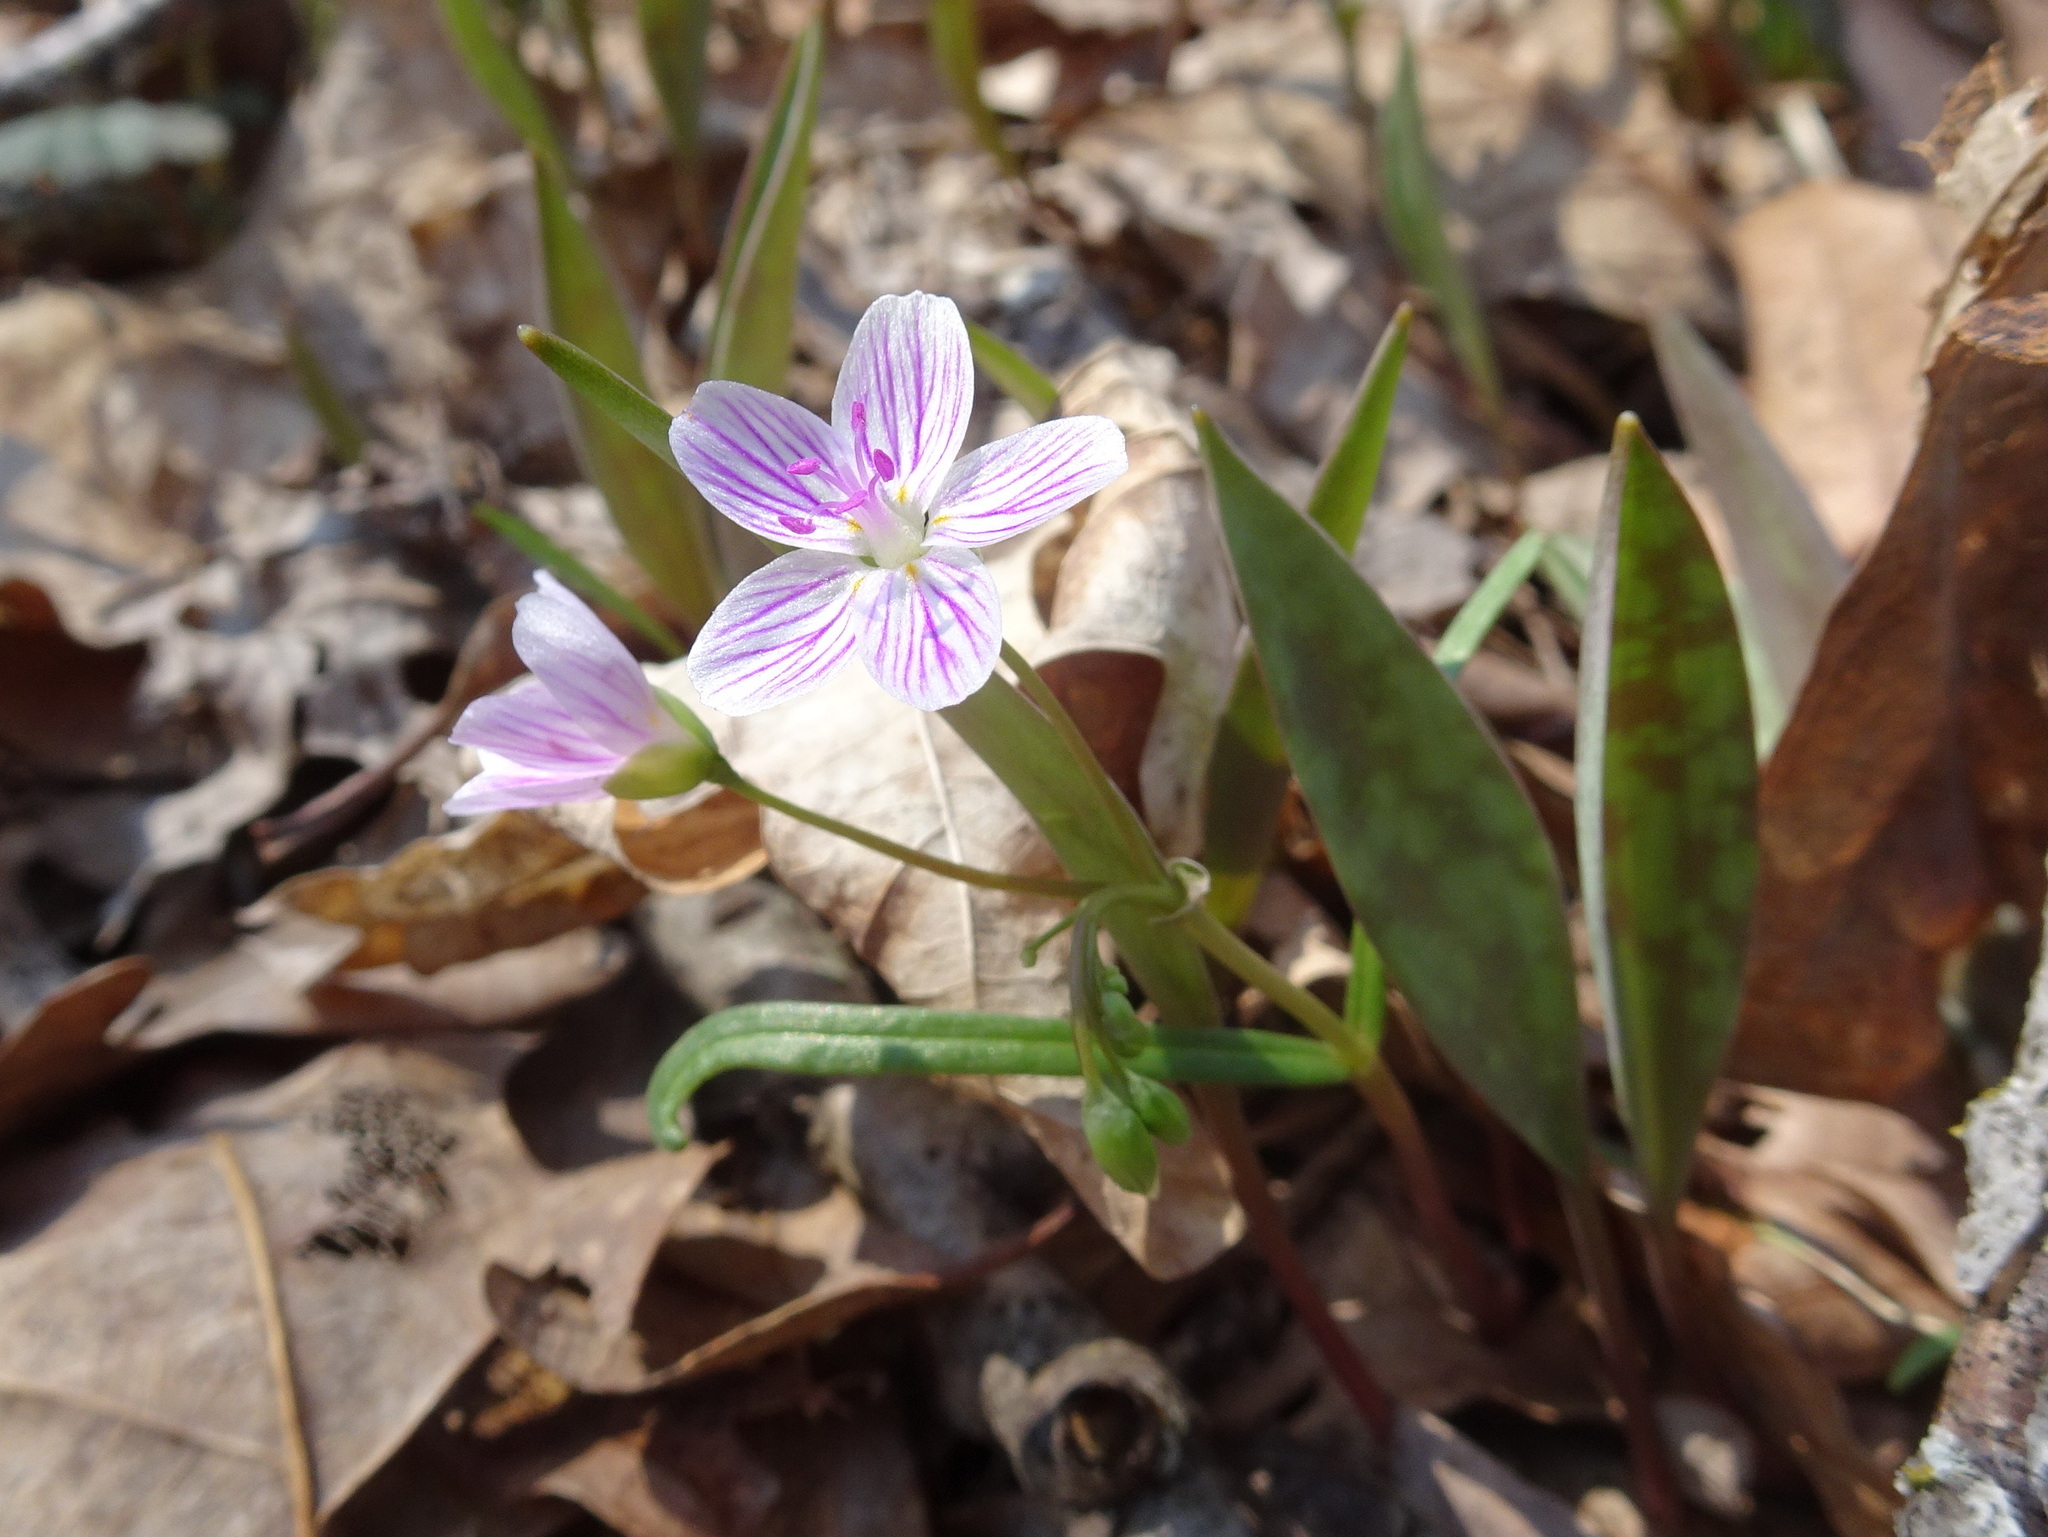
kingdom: Plantae
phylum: Tracheophyta
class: Magnoliopsida
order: Caryophyllales
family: Montiaceae
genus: Claytonia
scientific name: Claytonia virginica
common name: Virginia springbeauty
